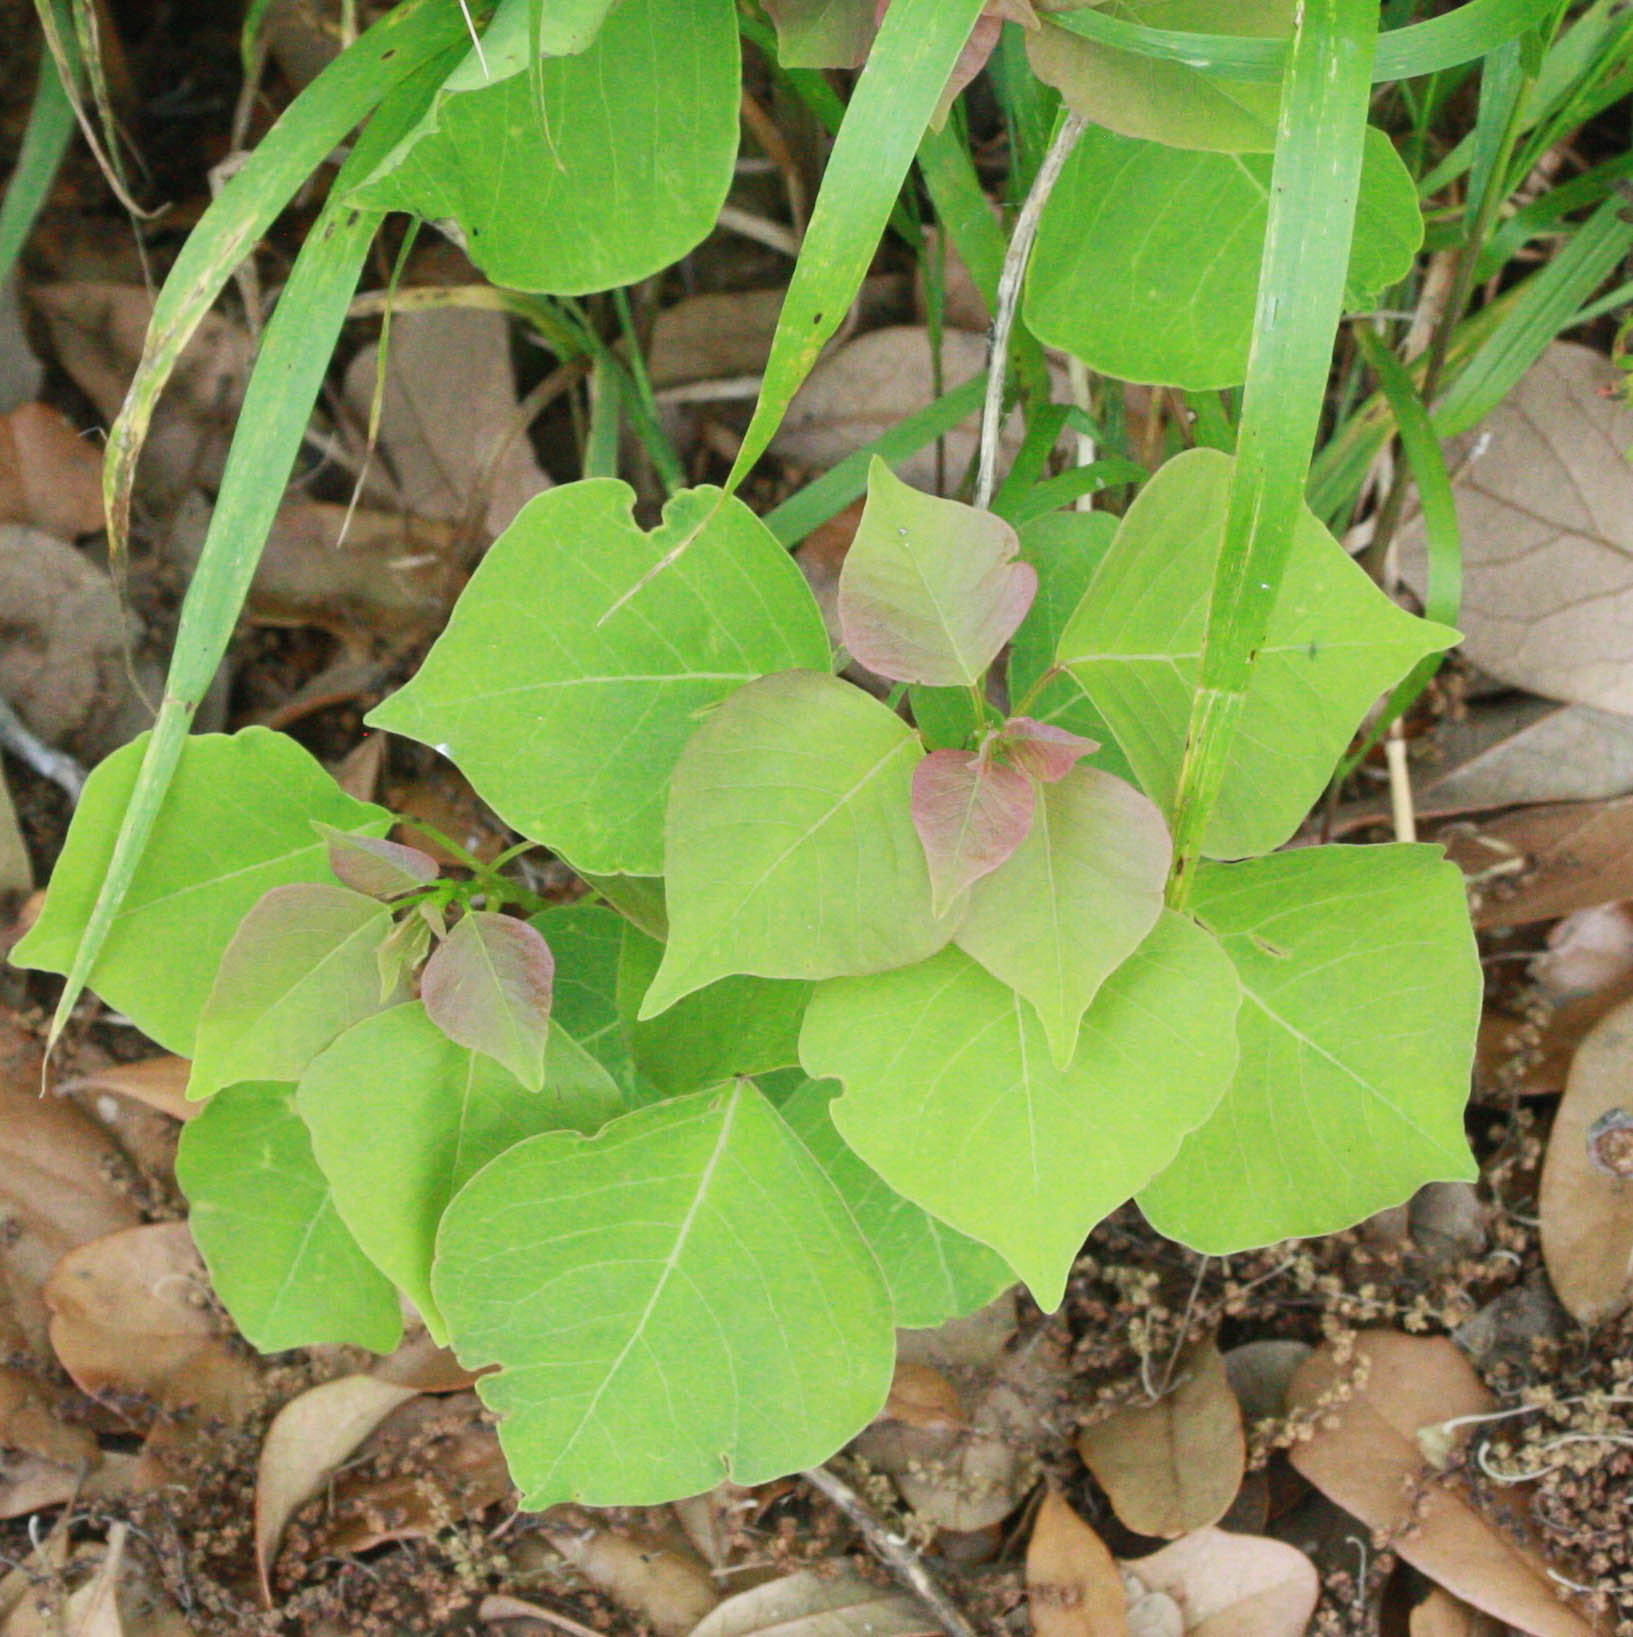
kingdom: Plantae
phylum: Tracheophyta
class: Magnoliopsida
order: Malpighiales
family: Euphorbiaceae
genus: Triadica
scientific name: Triadica sebifera
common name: Chinese tallow
